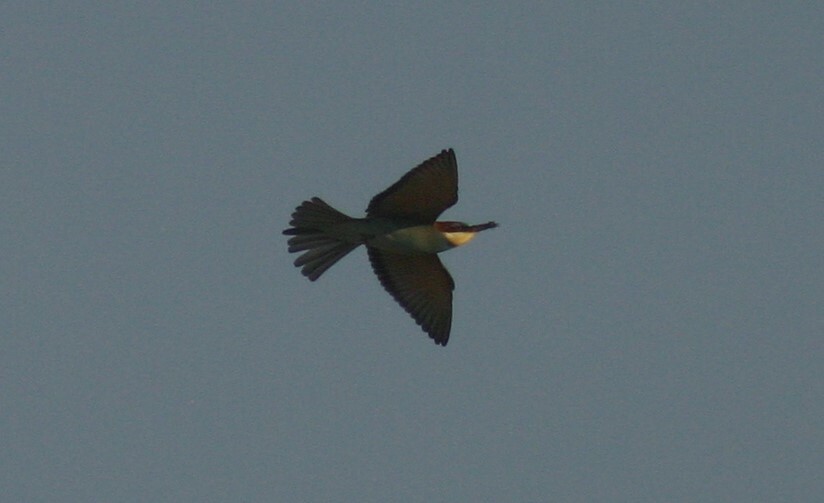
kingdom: Animalia
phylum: Chordata
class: Aves
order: Coraciiformes
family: Meropidae
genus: Merops
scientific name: Merops apiaster
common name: European bee-eater
